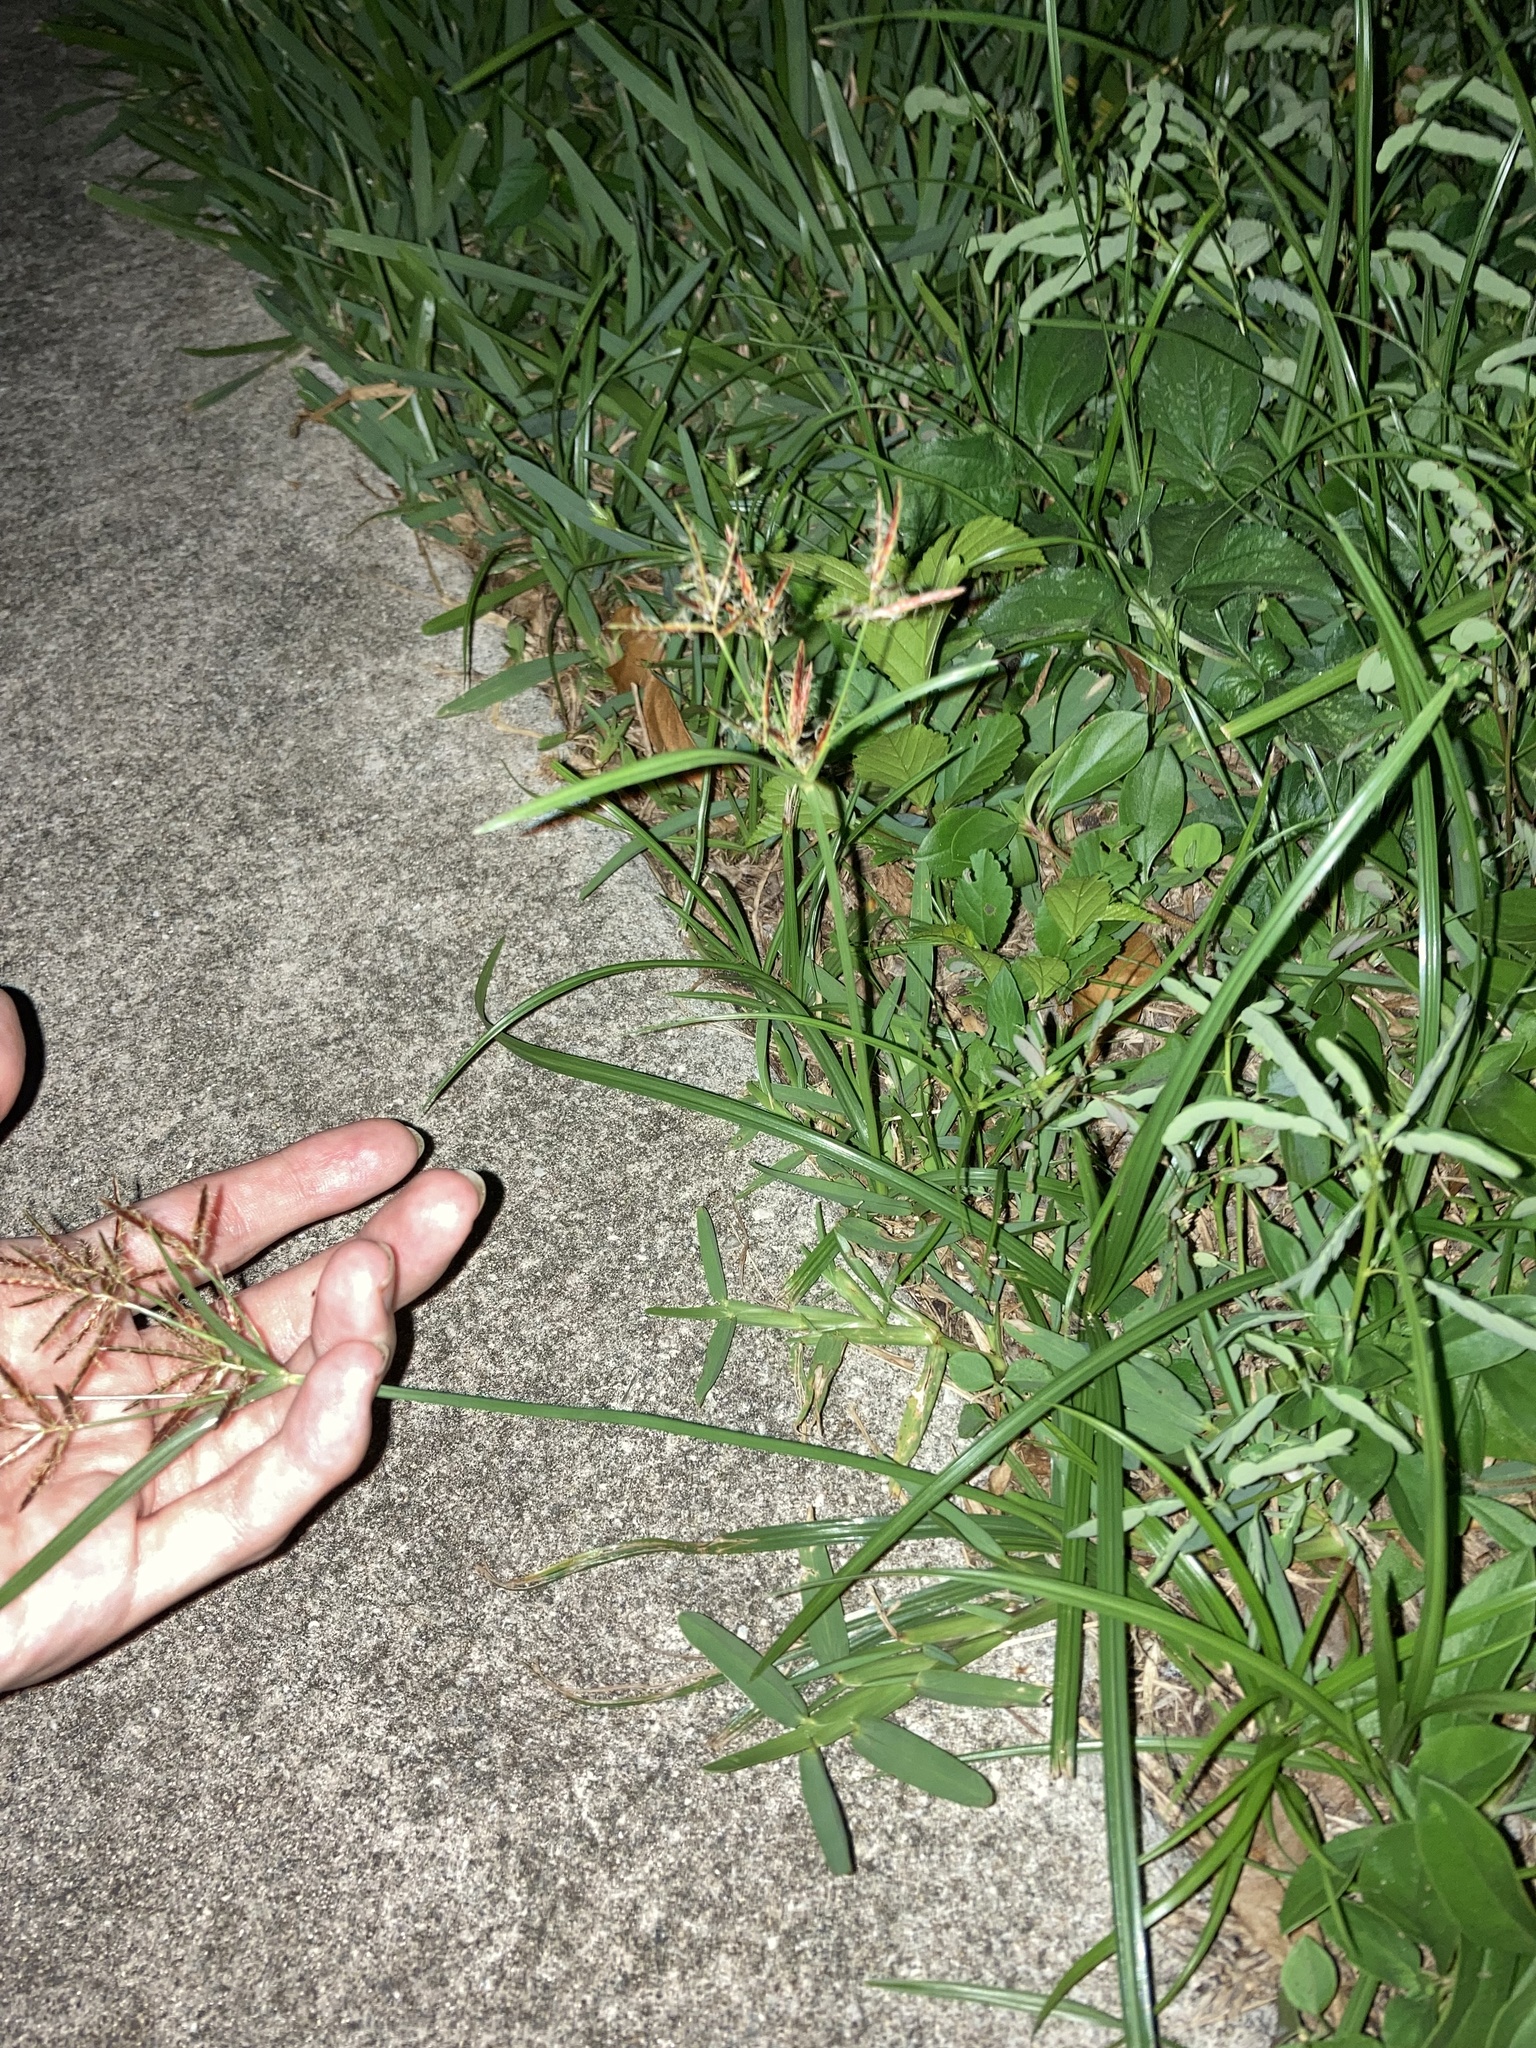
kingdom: Plantae
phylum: Tracheophyta
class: Liliopsida
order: Poales
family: Cyperaceae
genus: Cyperus
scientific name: Cyperus rotundus
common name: Nutgrass
